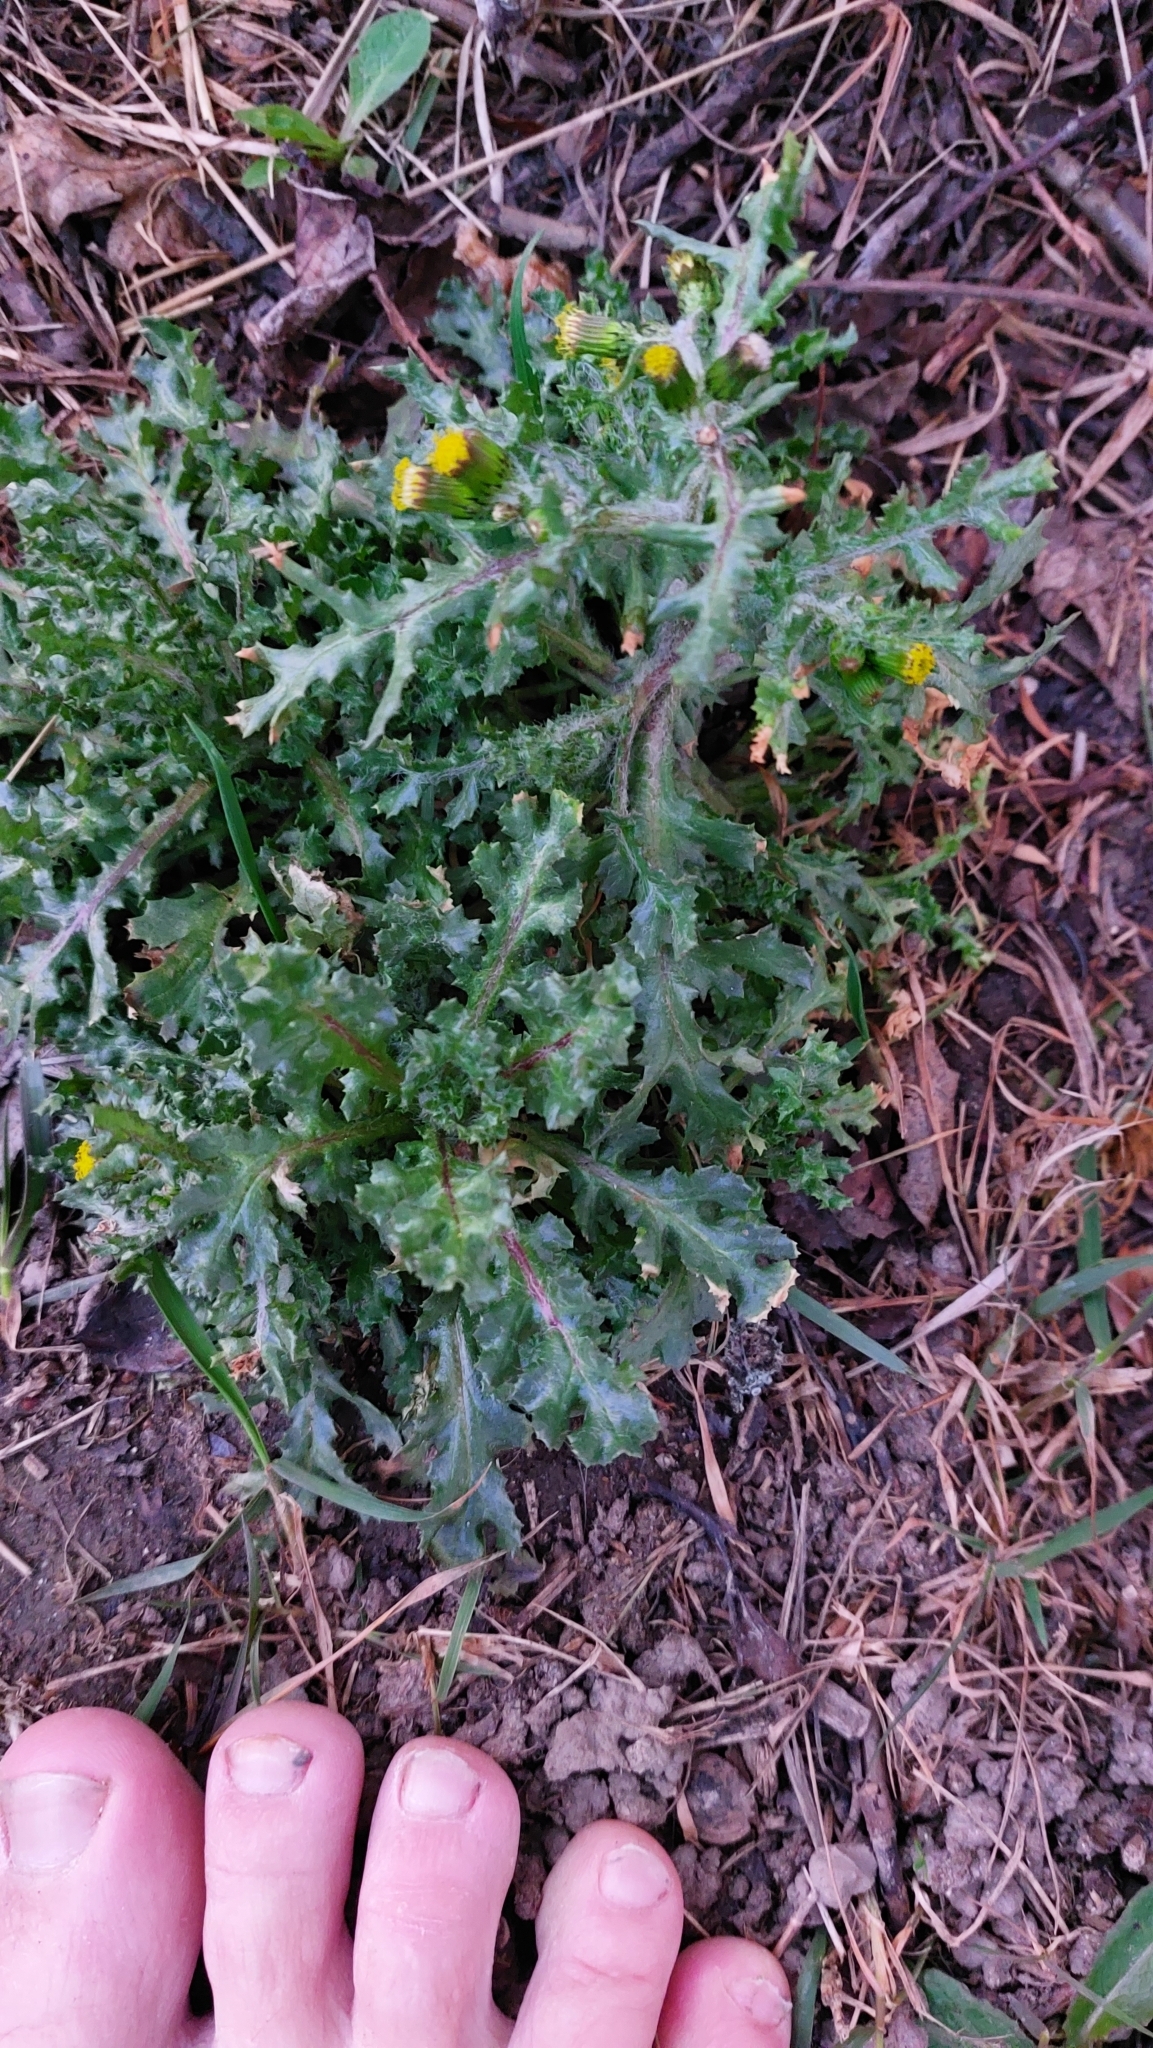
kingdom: Plantae
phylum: Tracheophyta
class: Magnoliopsida
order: Asterales
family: Asteraceae
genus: Senecio
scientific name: Senecio vulgaris
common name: Old-man-in-the-spring
